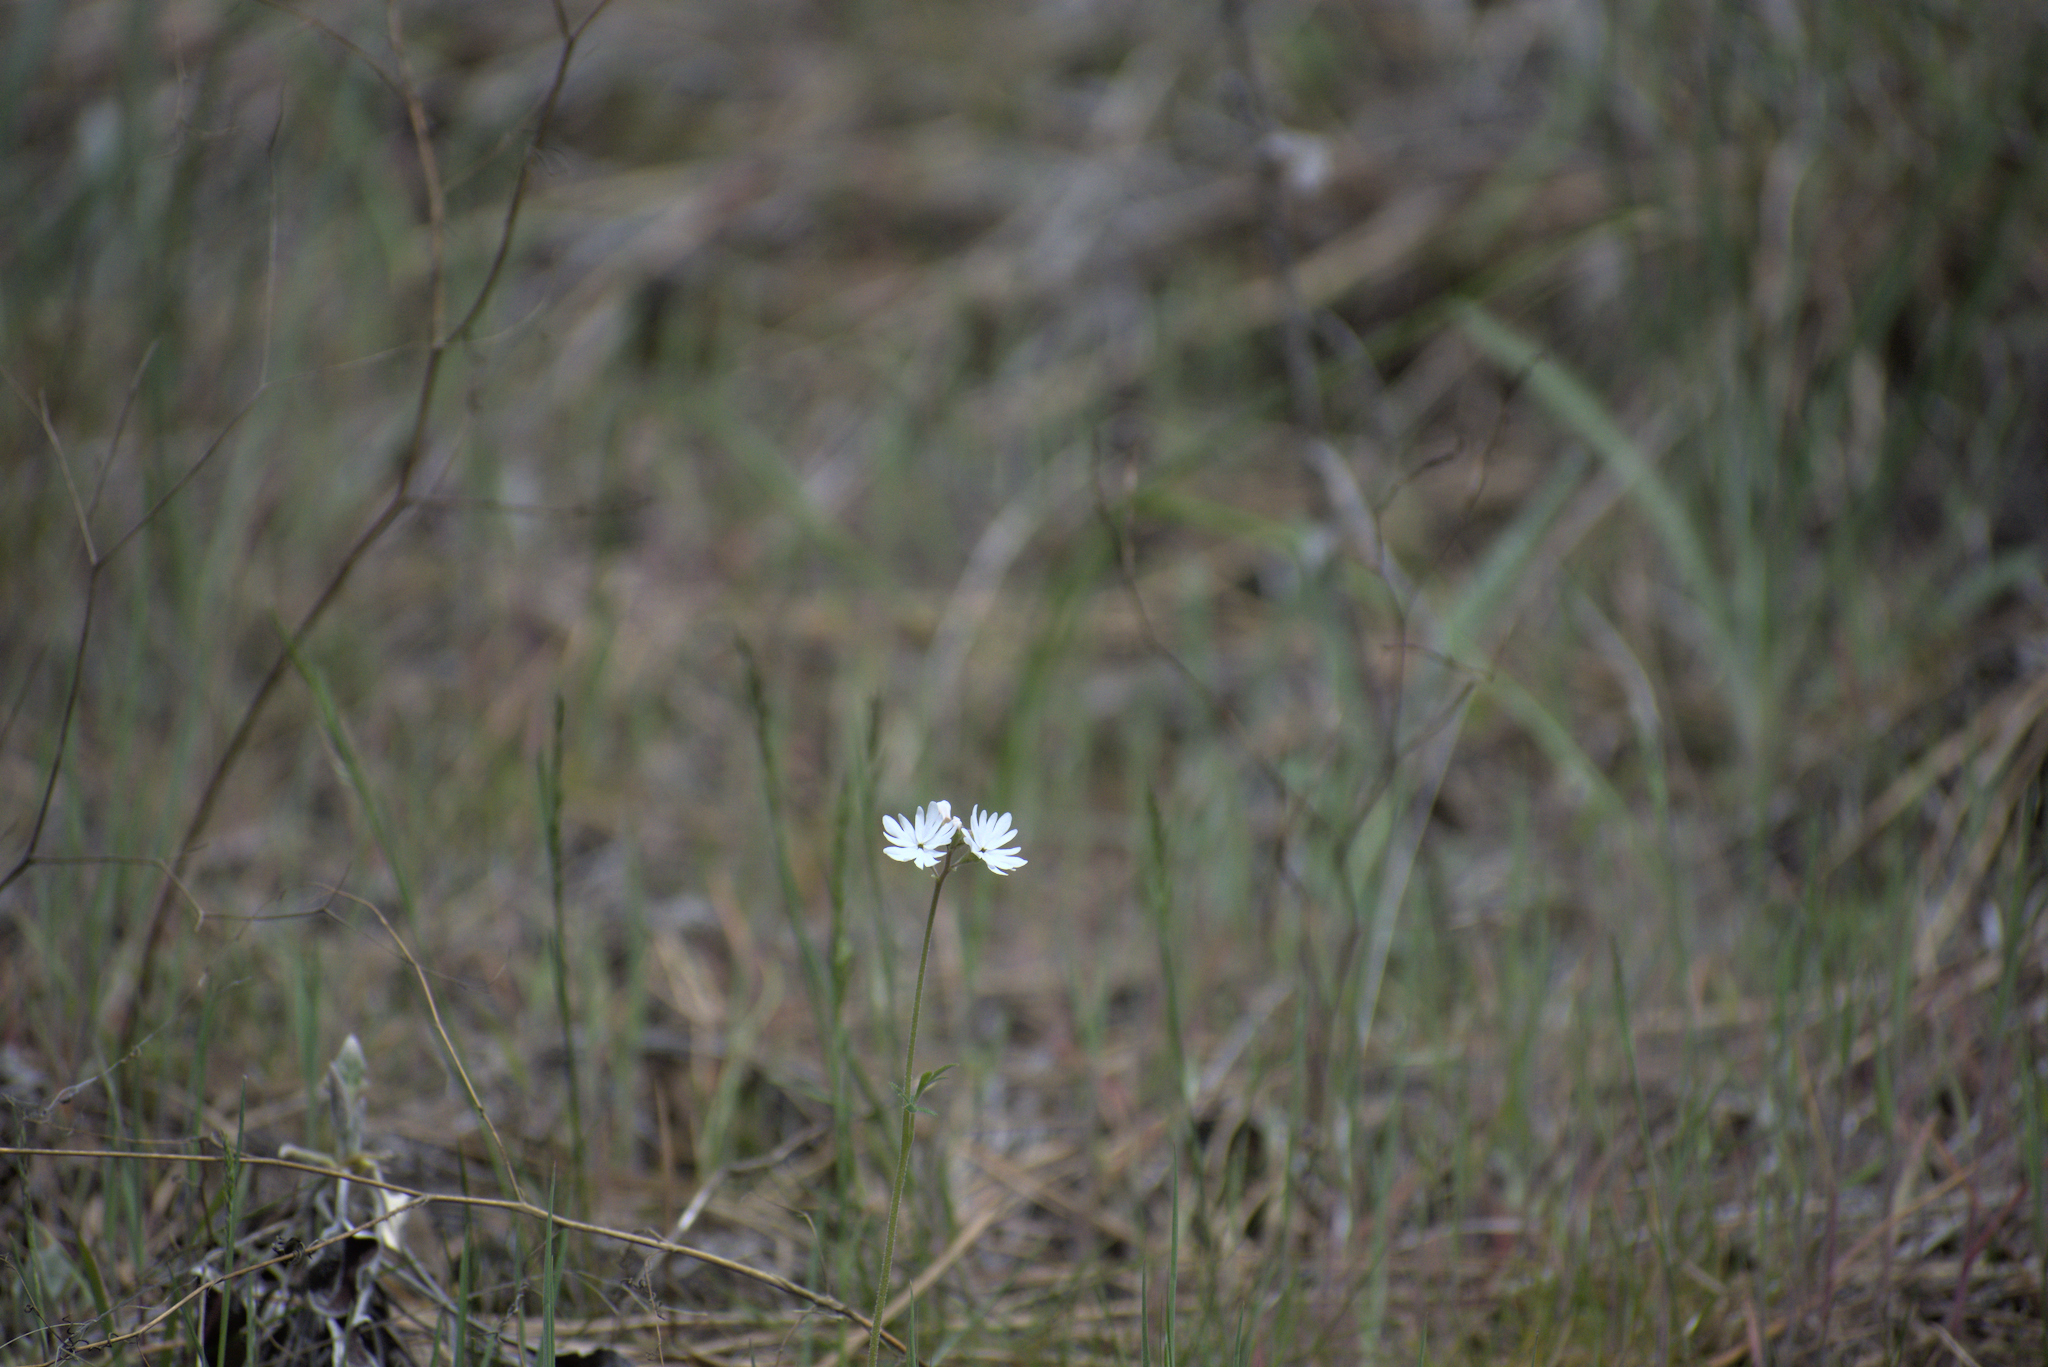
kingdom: Plantae
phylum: Tracheophyta
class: Magnoliopsida
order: Saxifragales
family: Saxifragaceae
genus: Lithophragma
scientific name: Lithophragma parviflorum
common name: Small-flowered fringe-cup
